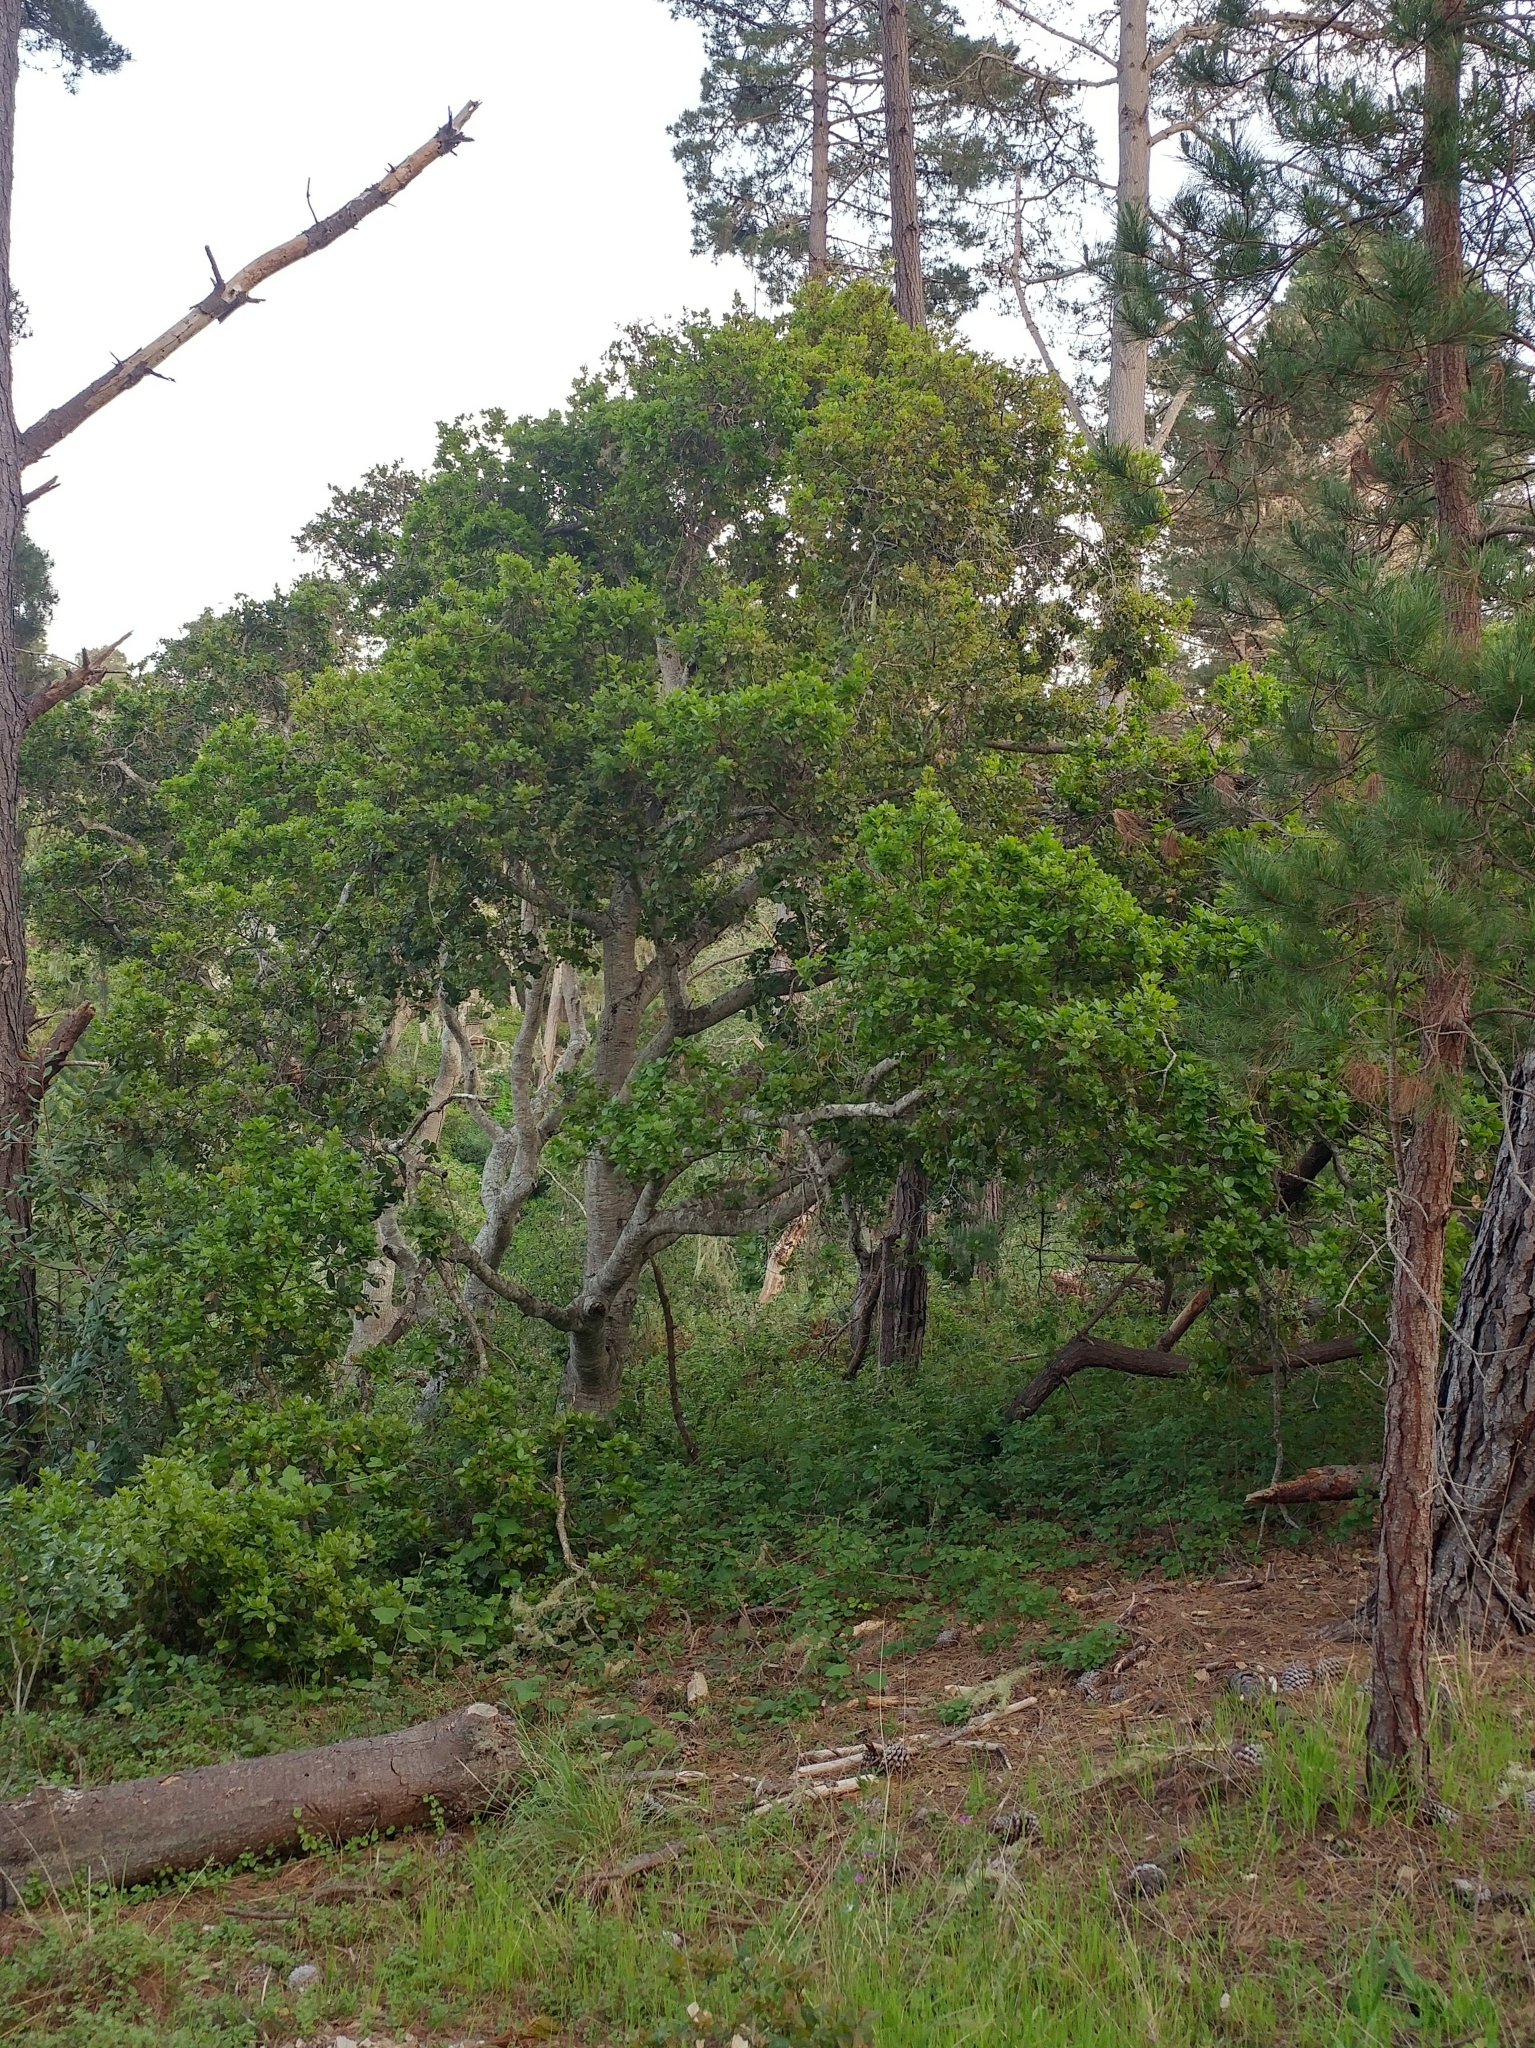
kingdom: Plantae
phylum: Tracheophyta
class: Magnoliopsida
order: Fagales
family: Fagaceae
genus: Quercus
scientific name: Quercus agrifolia
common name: California live oak
